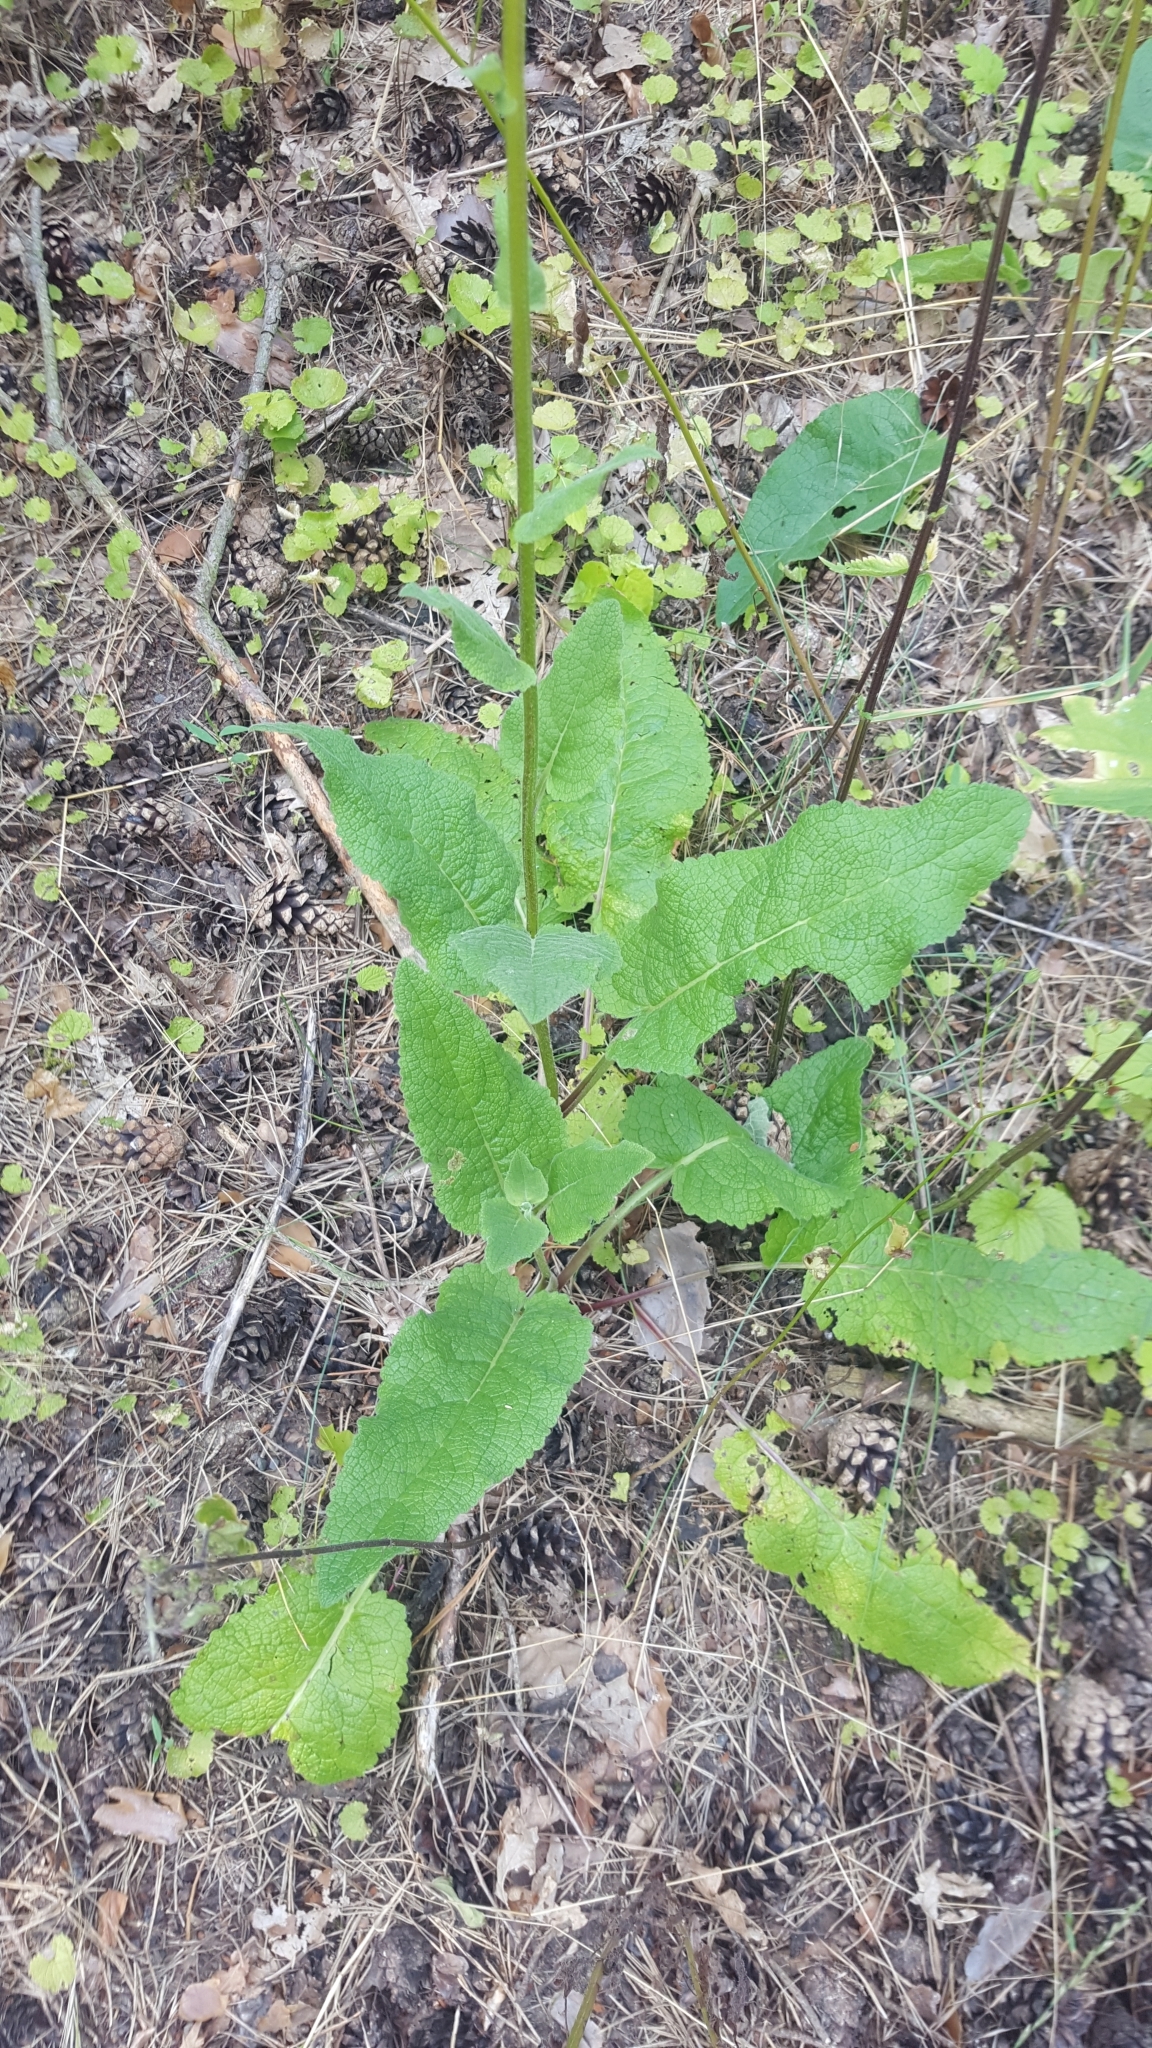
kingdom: Plantae
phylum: Tracheophyta
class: Magnoliopsida
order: Lamiales
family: Scrophulariaceae
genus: Verbascum
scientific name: Verbascum nigrum
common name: Dark mullein
